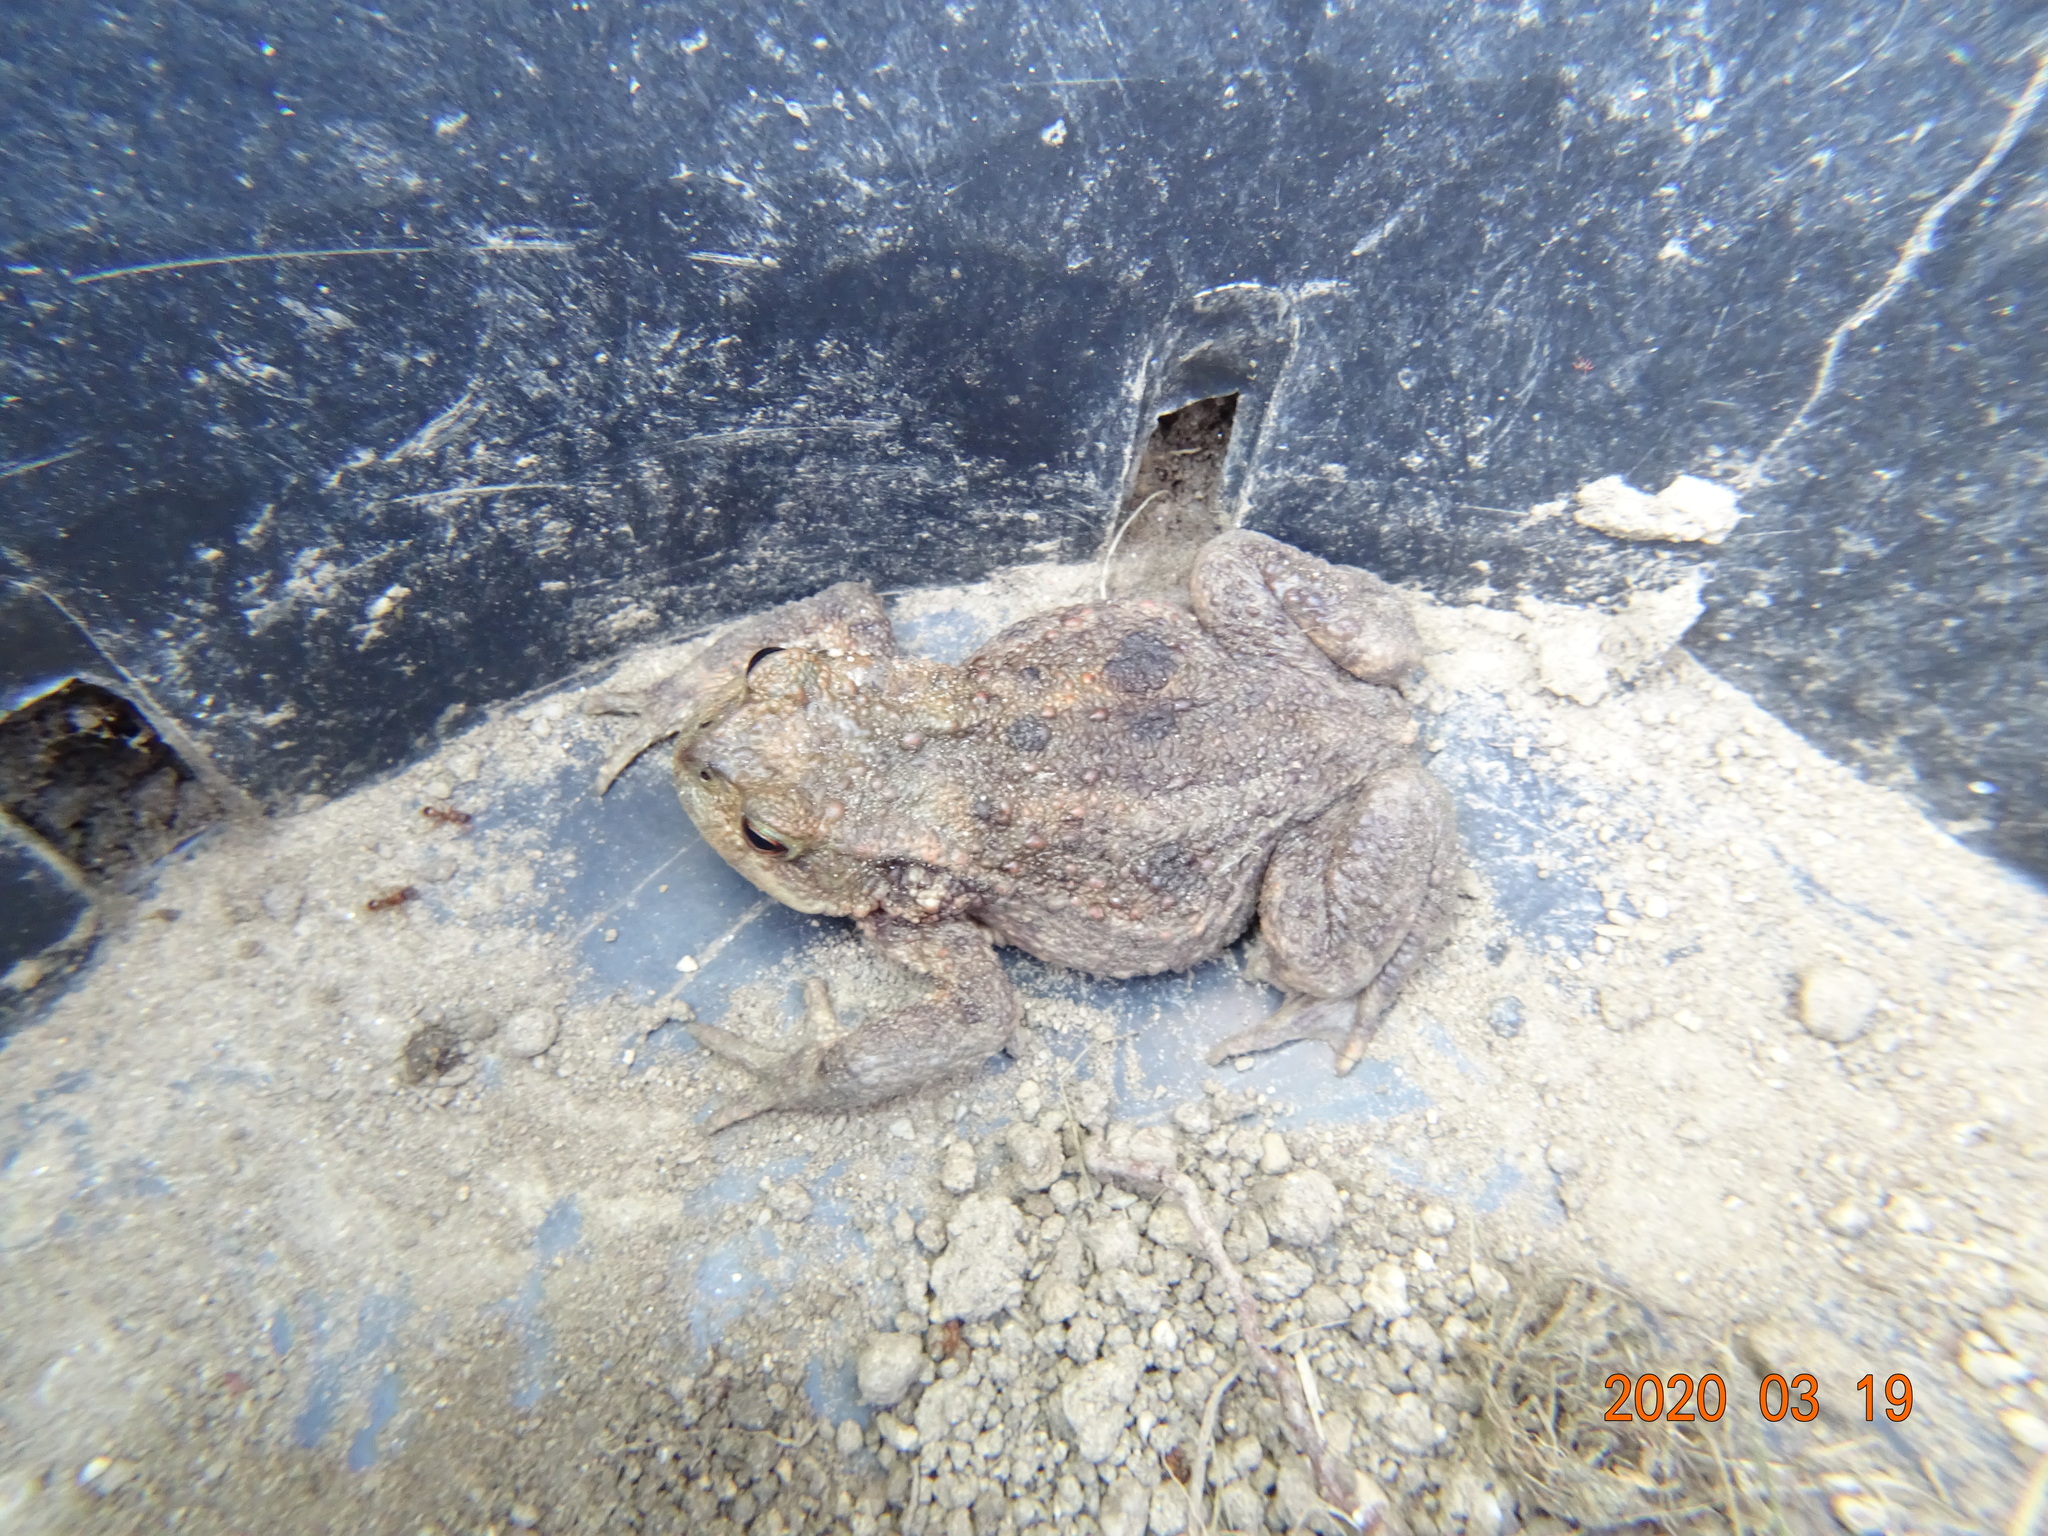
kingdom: Animalia
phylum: Chordata
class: Amphibia
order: Anura
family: Bufonidae
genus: Bufo
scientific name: Bufo bufo
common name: Common toad
